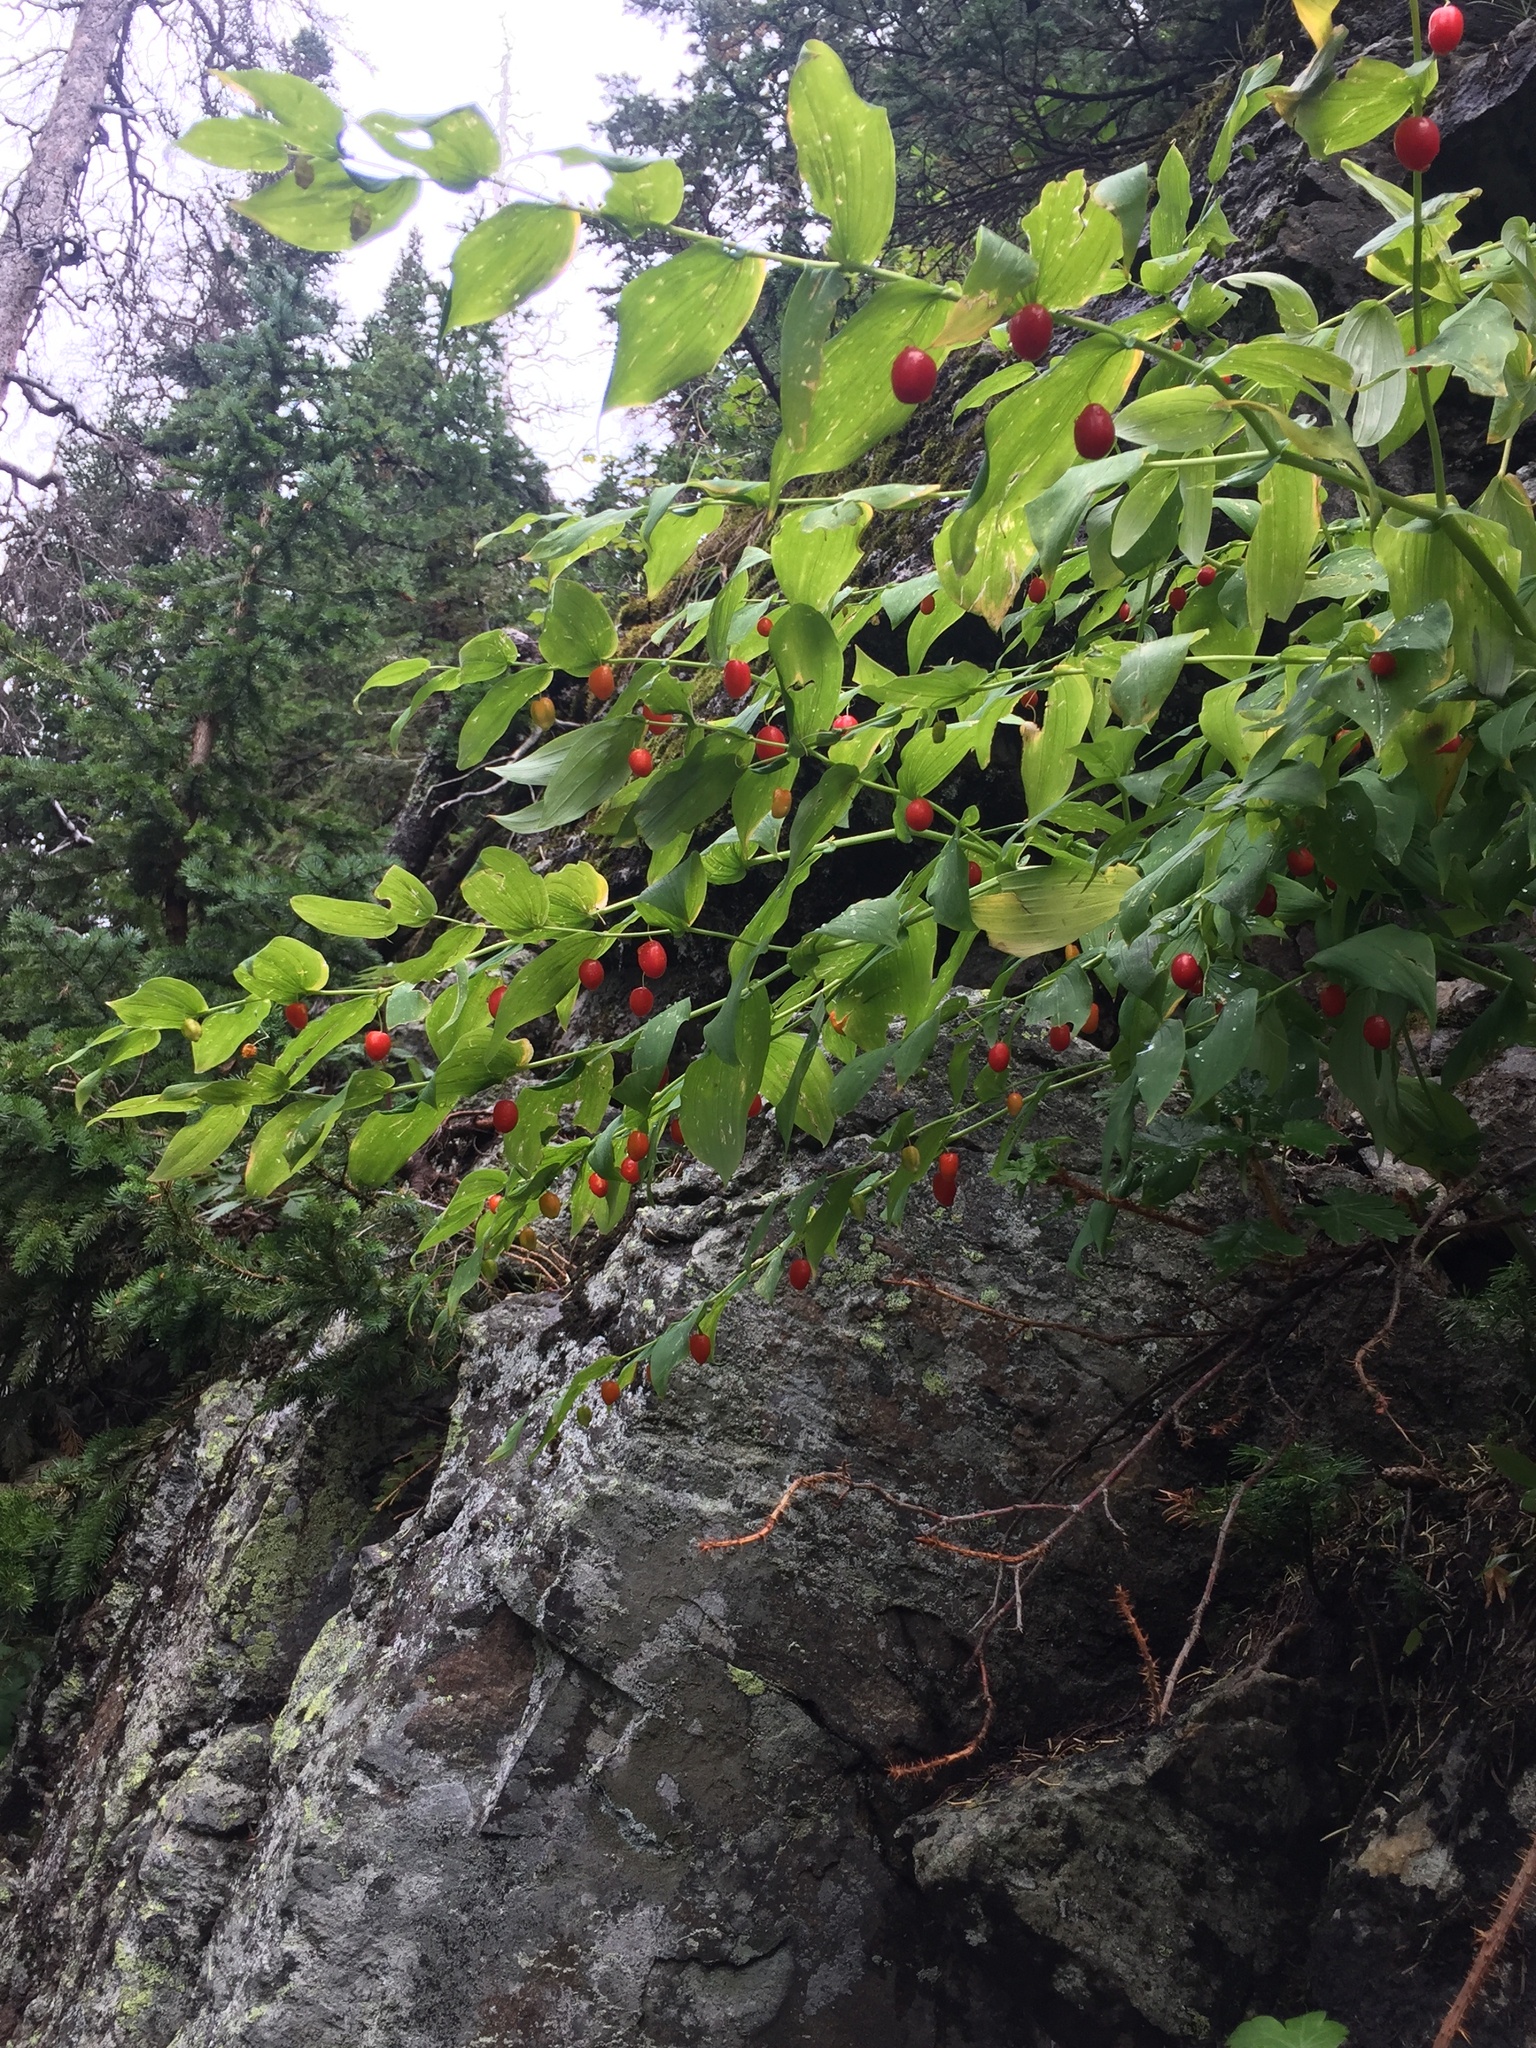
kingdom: Plantae
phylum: Tracheophyta
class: Liliopsida
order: Liliales
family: Liliaceae
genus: Streptopus
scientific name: Streptopus amplexifolius
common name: Clasp twisted stalk
